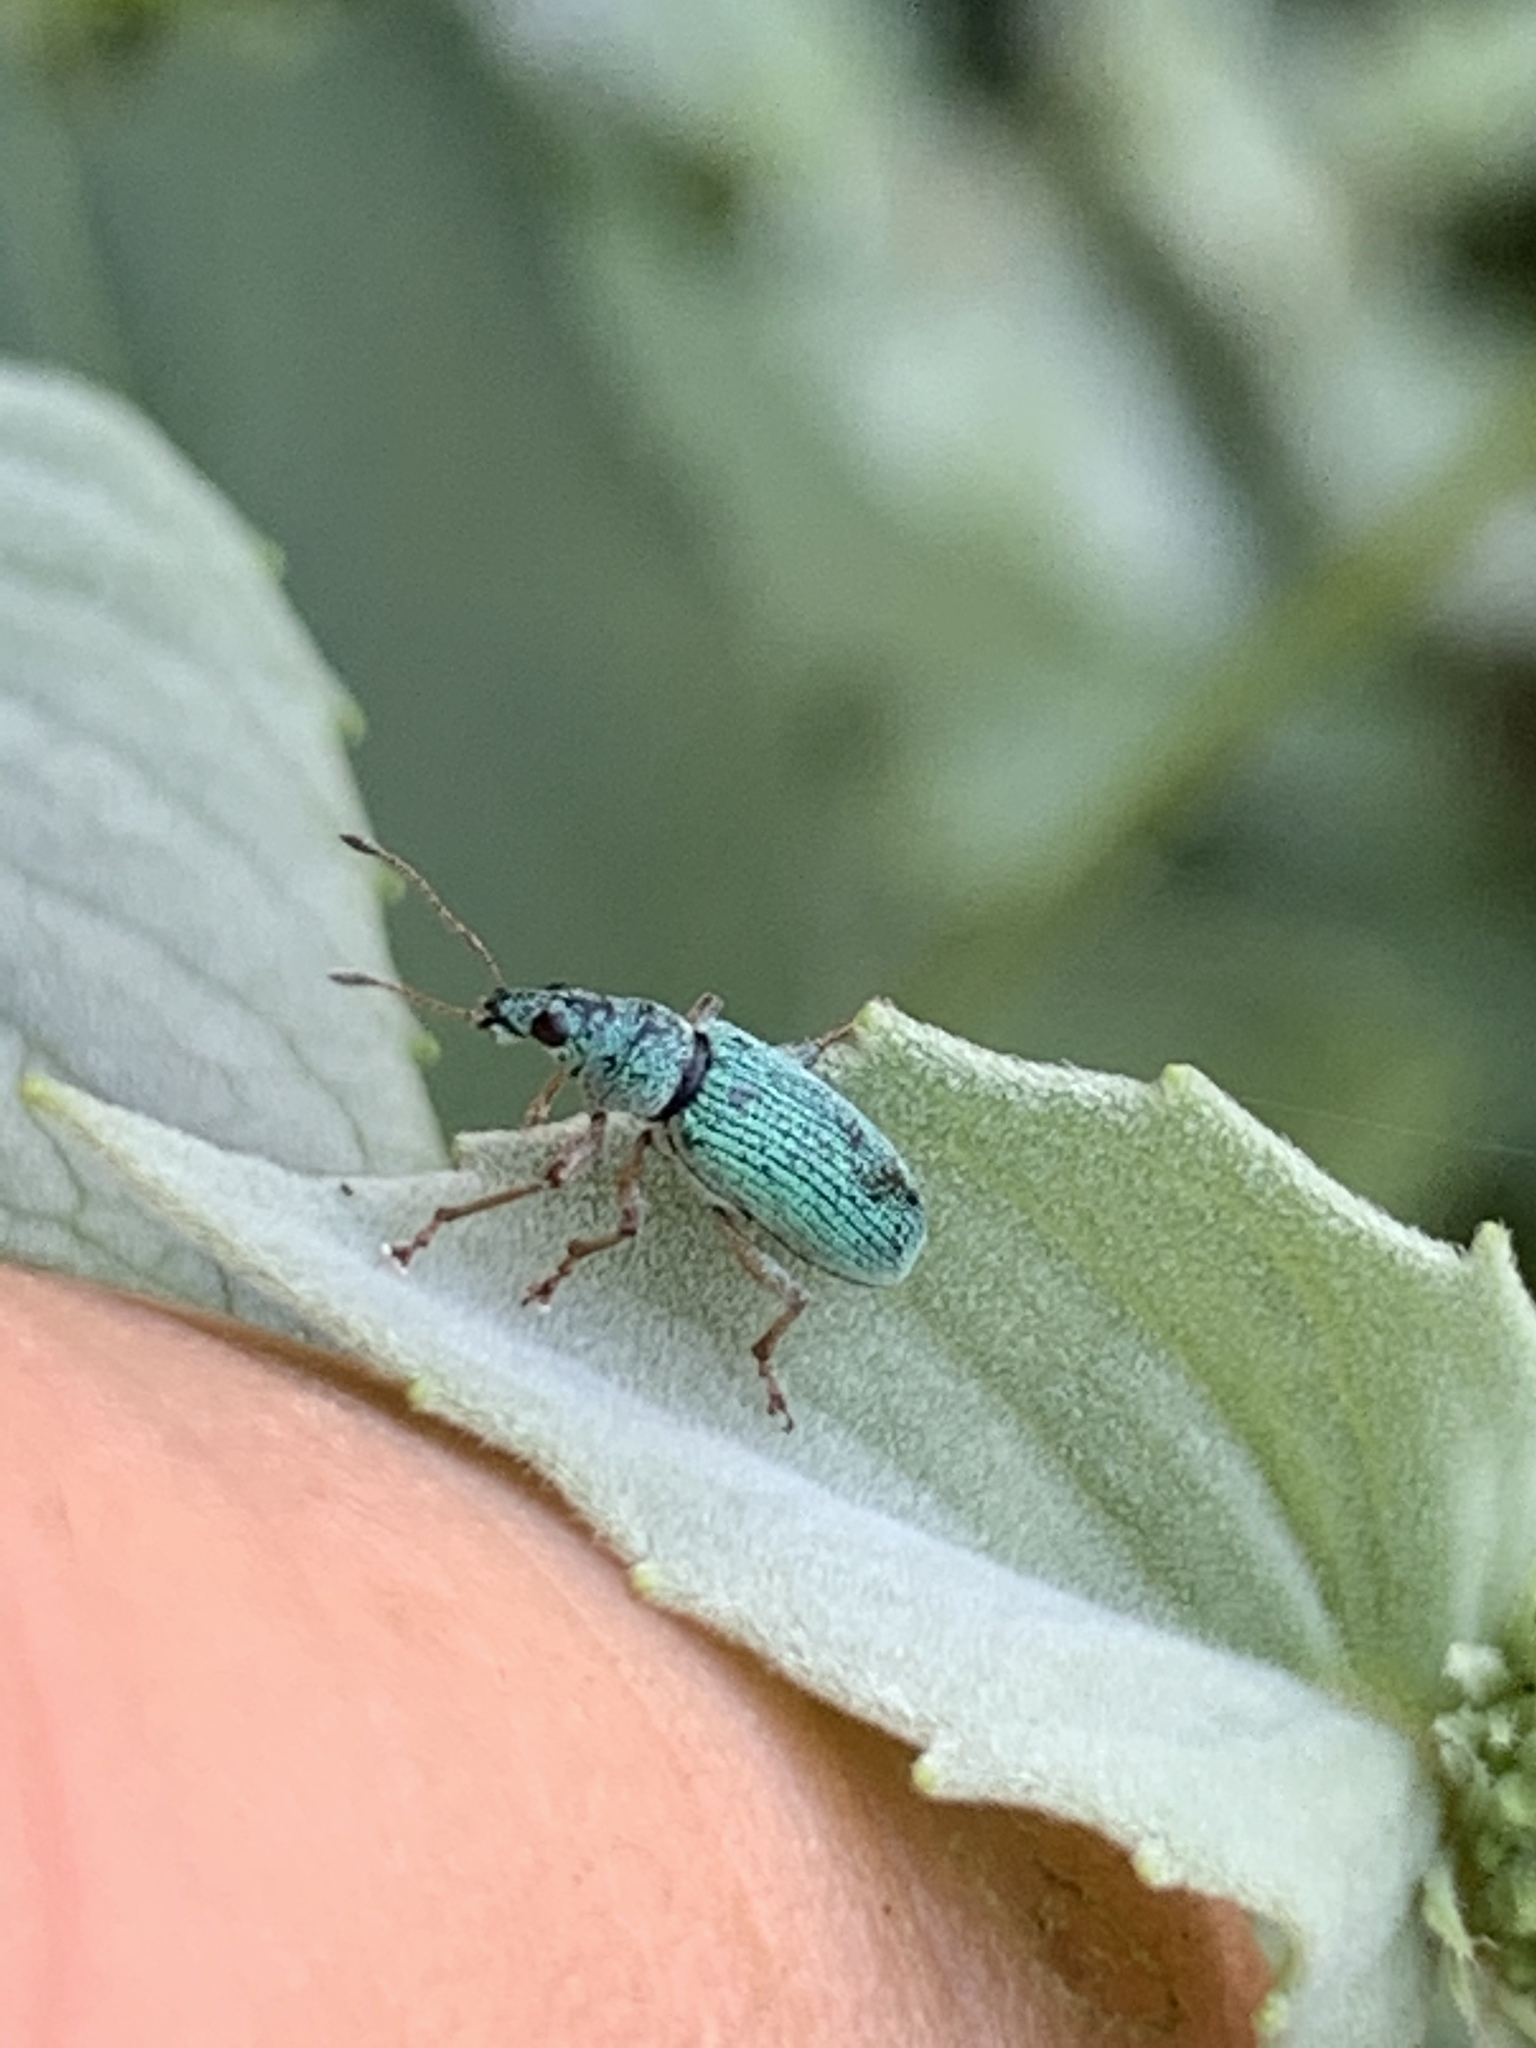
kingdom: Animalia
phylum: Arthropoda
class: Insecta
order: Coleoptera
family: Curculionidae
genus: Polydrusus
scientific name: Polydrusus formosus
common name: Weevil
